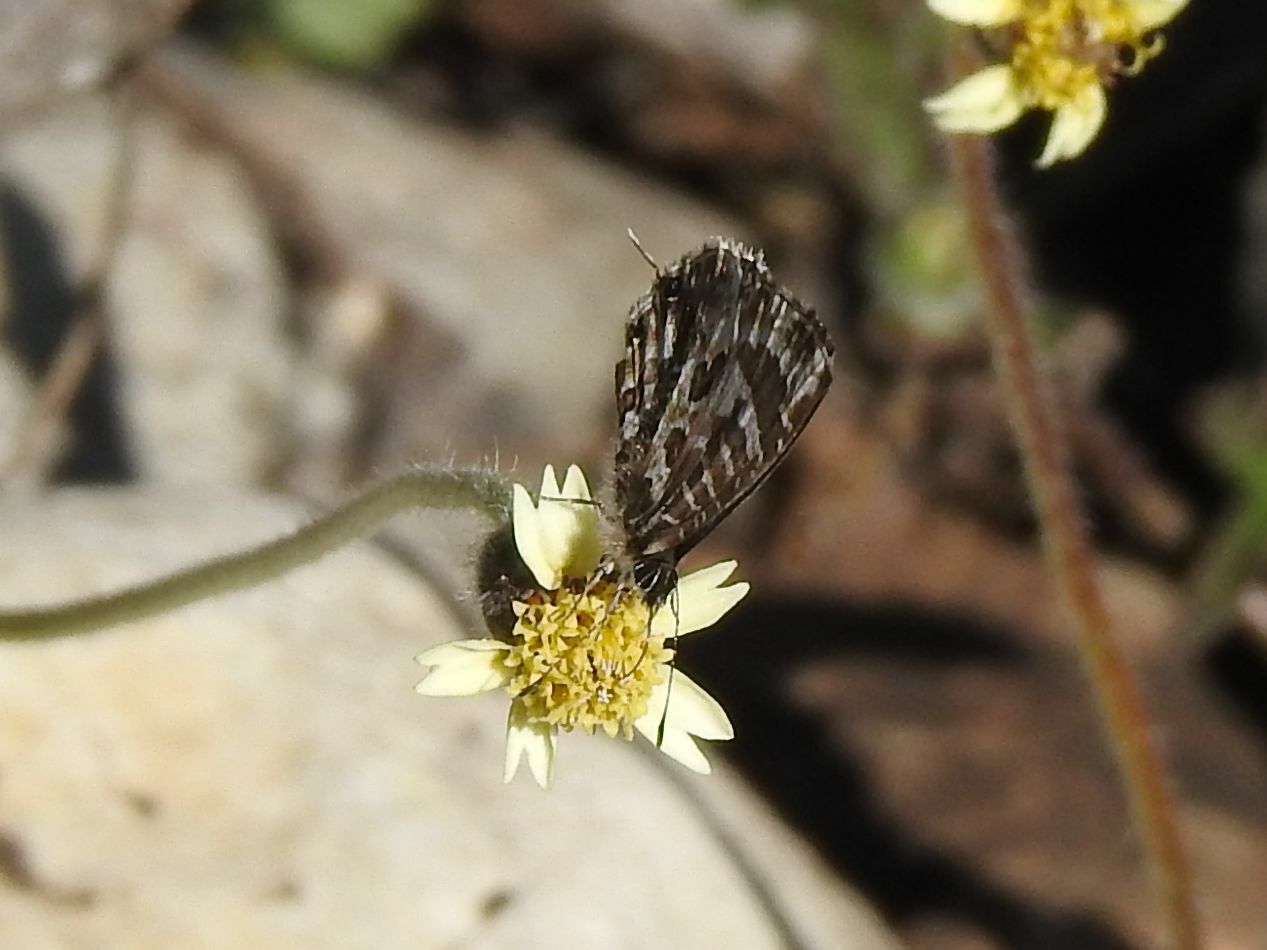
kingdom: Animalia
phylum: Arthropoda
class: Insecta
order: Lepidoptera
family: Lycaenidae
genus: Cacyreus
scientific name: Cacyreus lingeus
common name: Bush bronze
